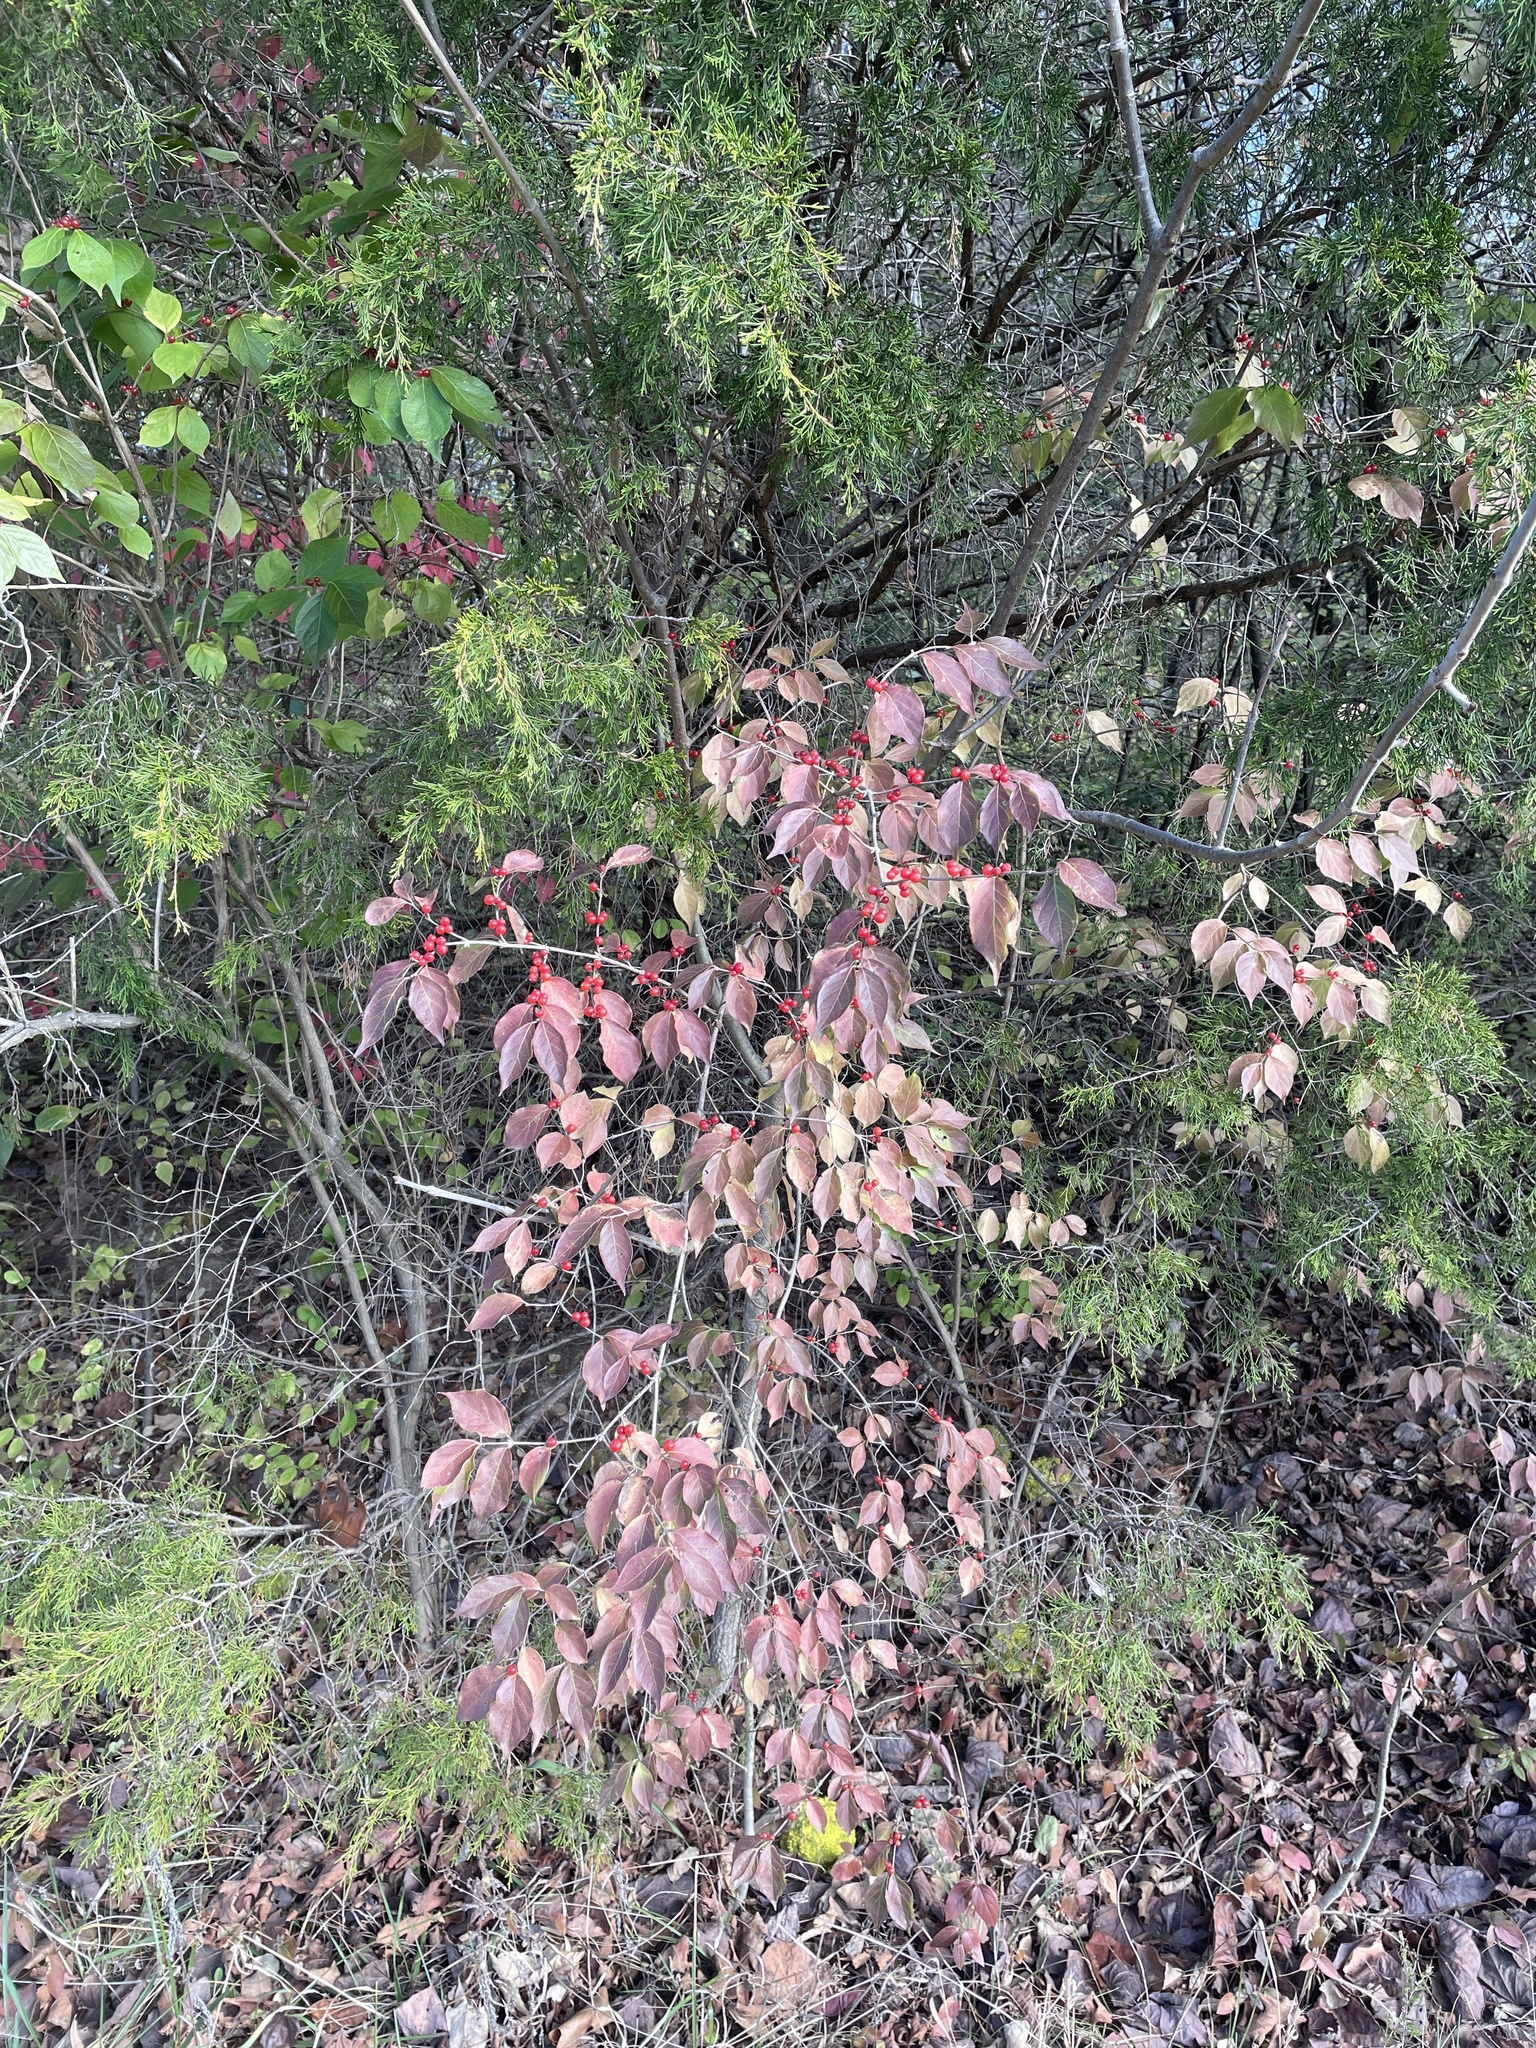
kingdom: Plantae
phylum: Tracheophyta
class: Magnoliopsida
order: Dipsacales
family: Caprifoliaceae
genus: Lonicera
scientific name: Lonicera maackii
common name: Amur honeysuckle
